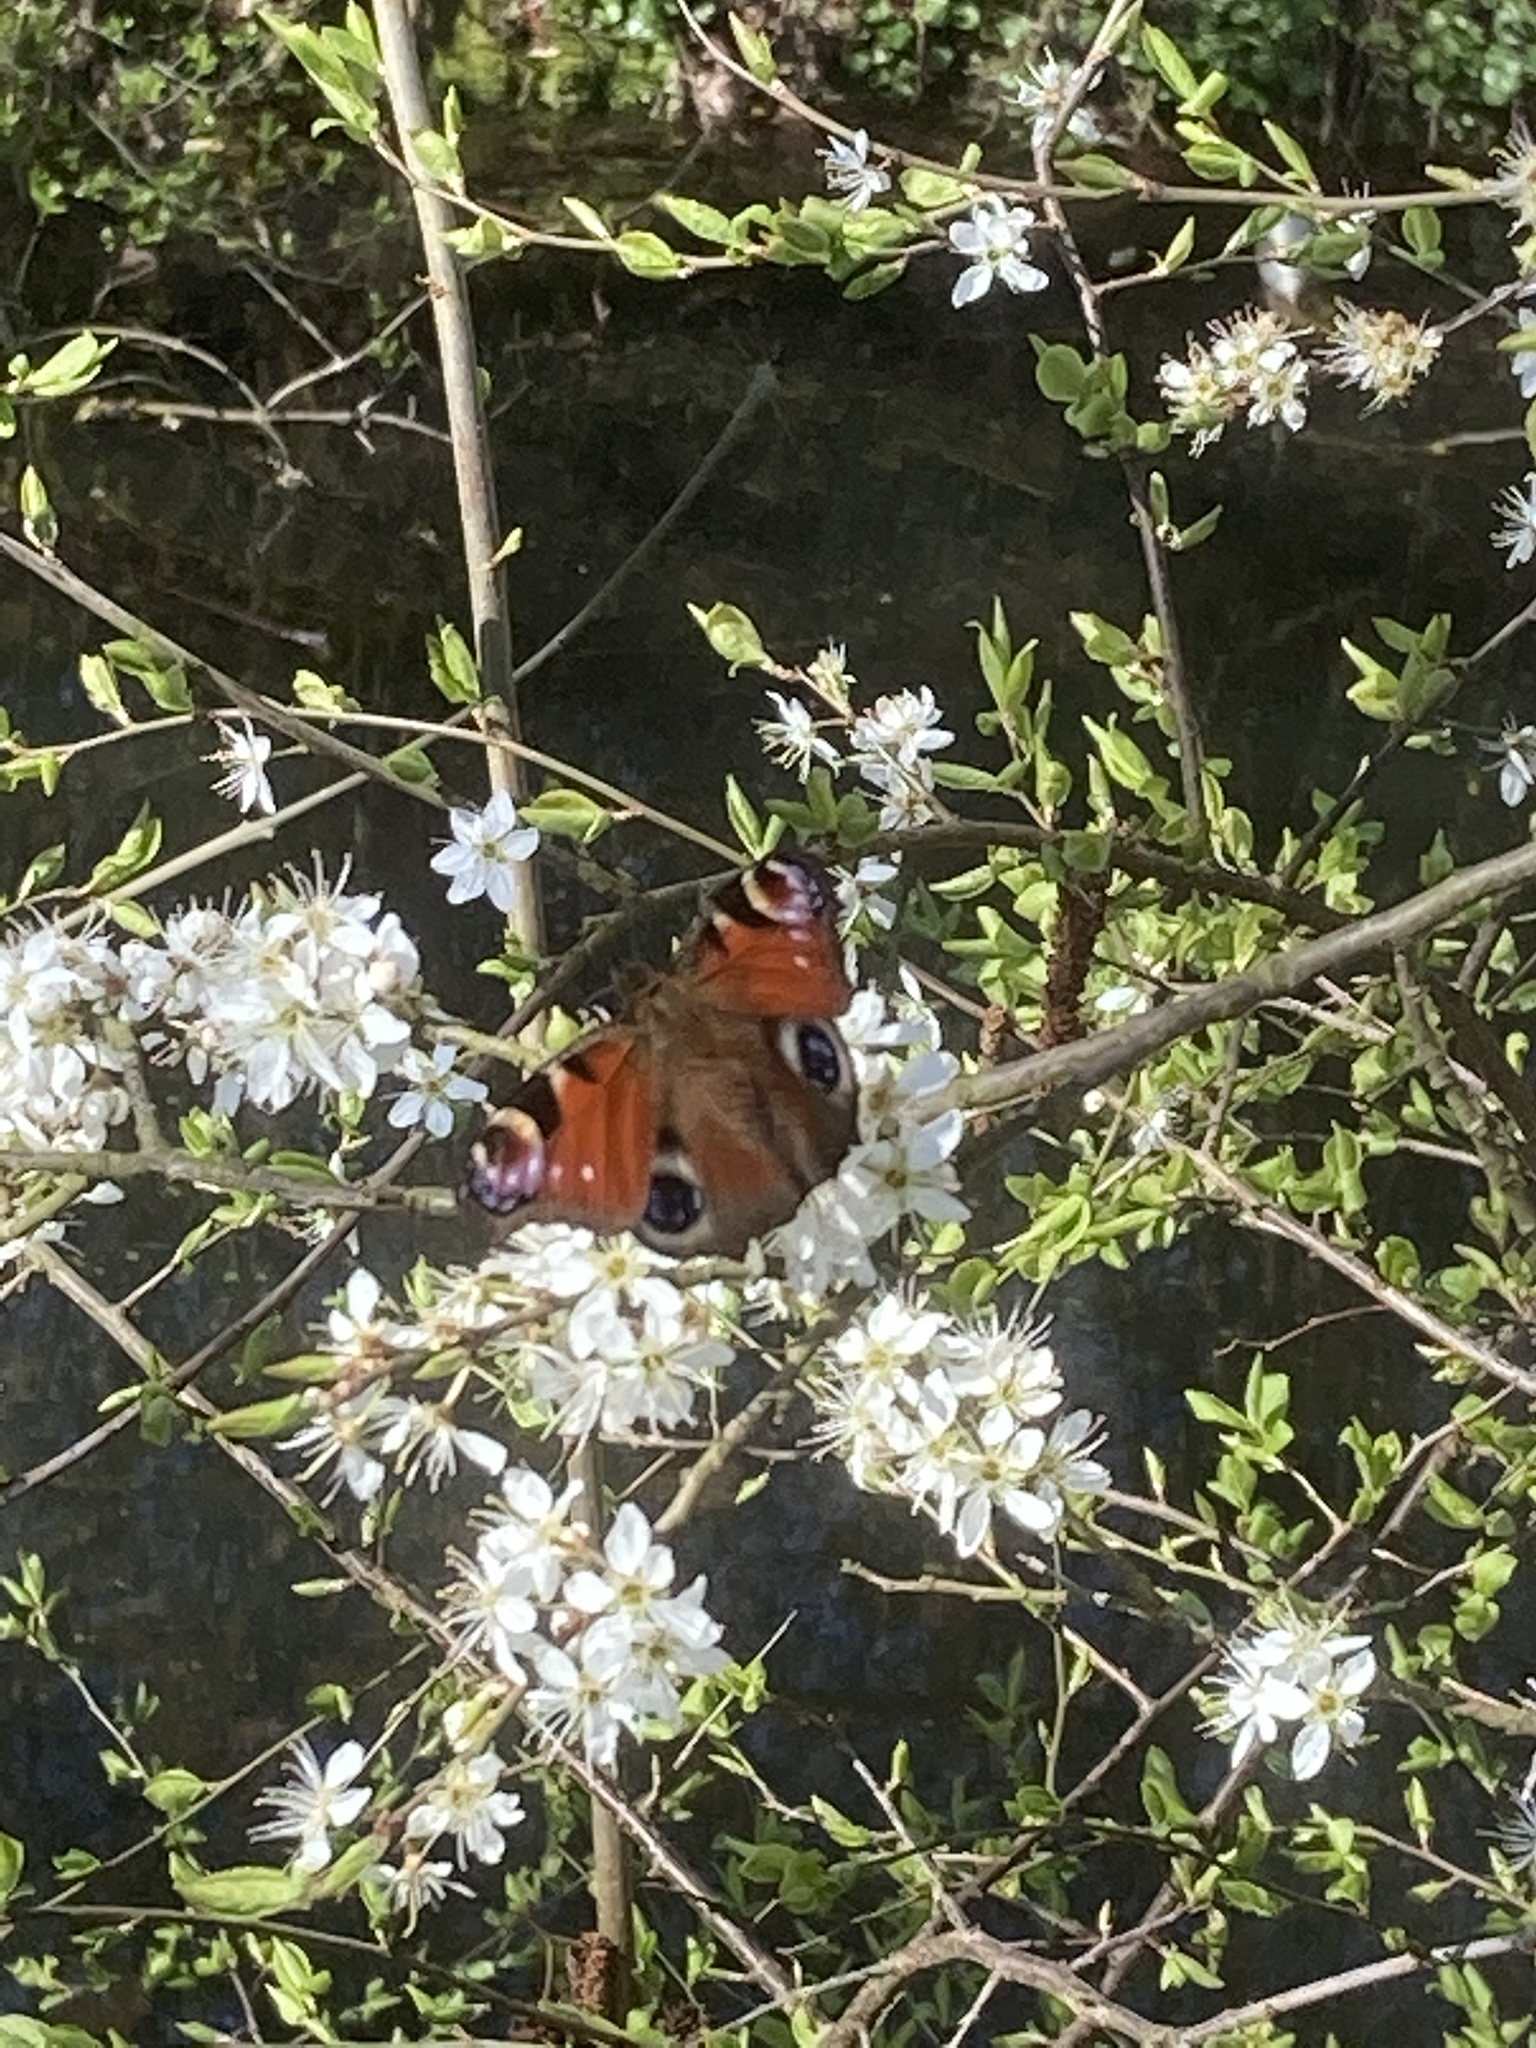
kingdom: Animalia
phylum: Arthropoda
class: Insecta
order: Lepidoptera
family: Nymphalidae
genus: Aglais
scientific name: Aglais io
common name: Peacock
